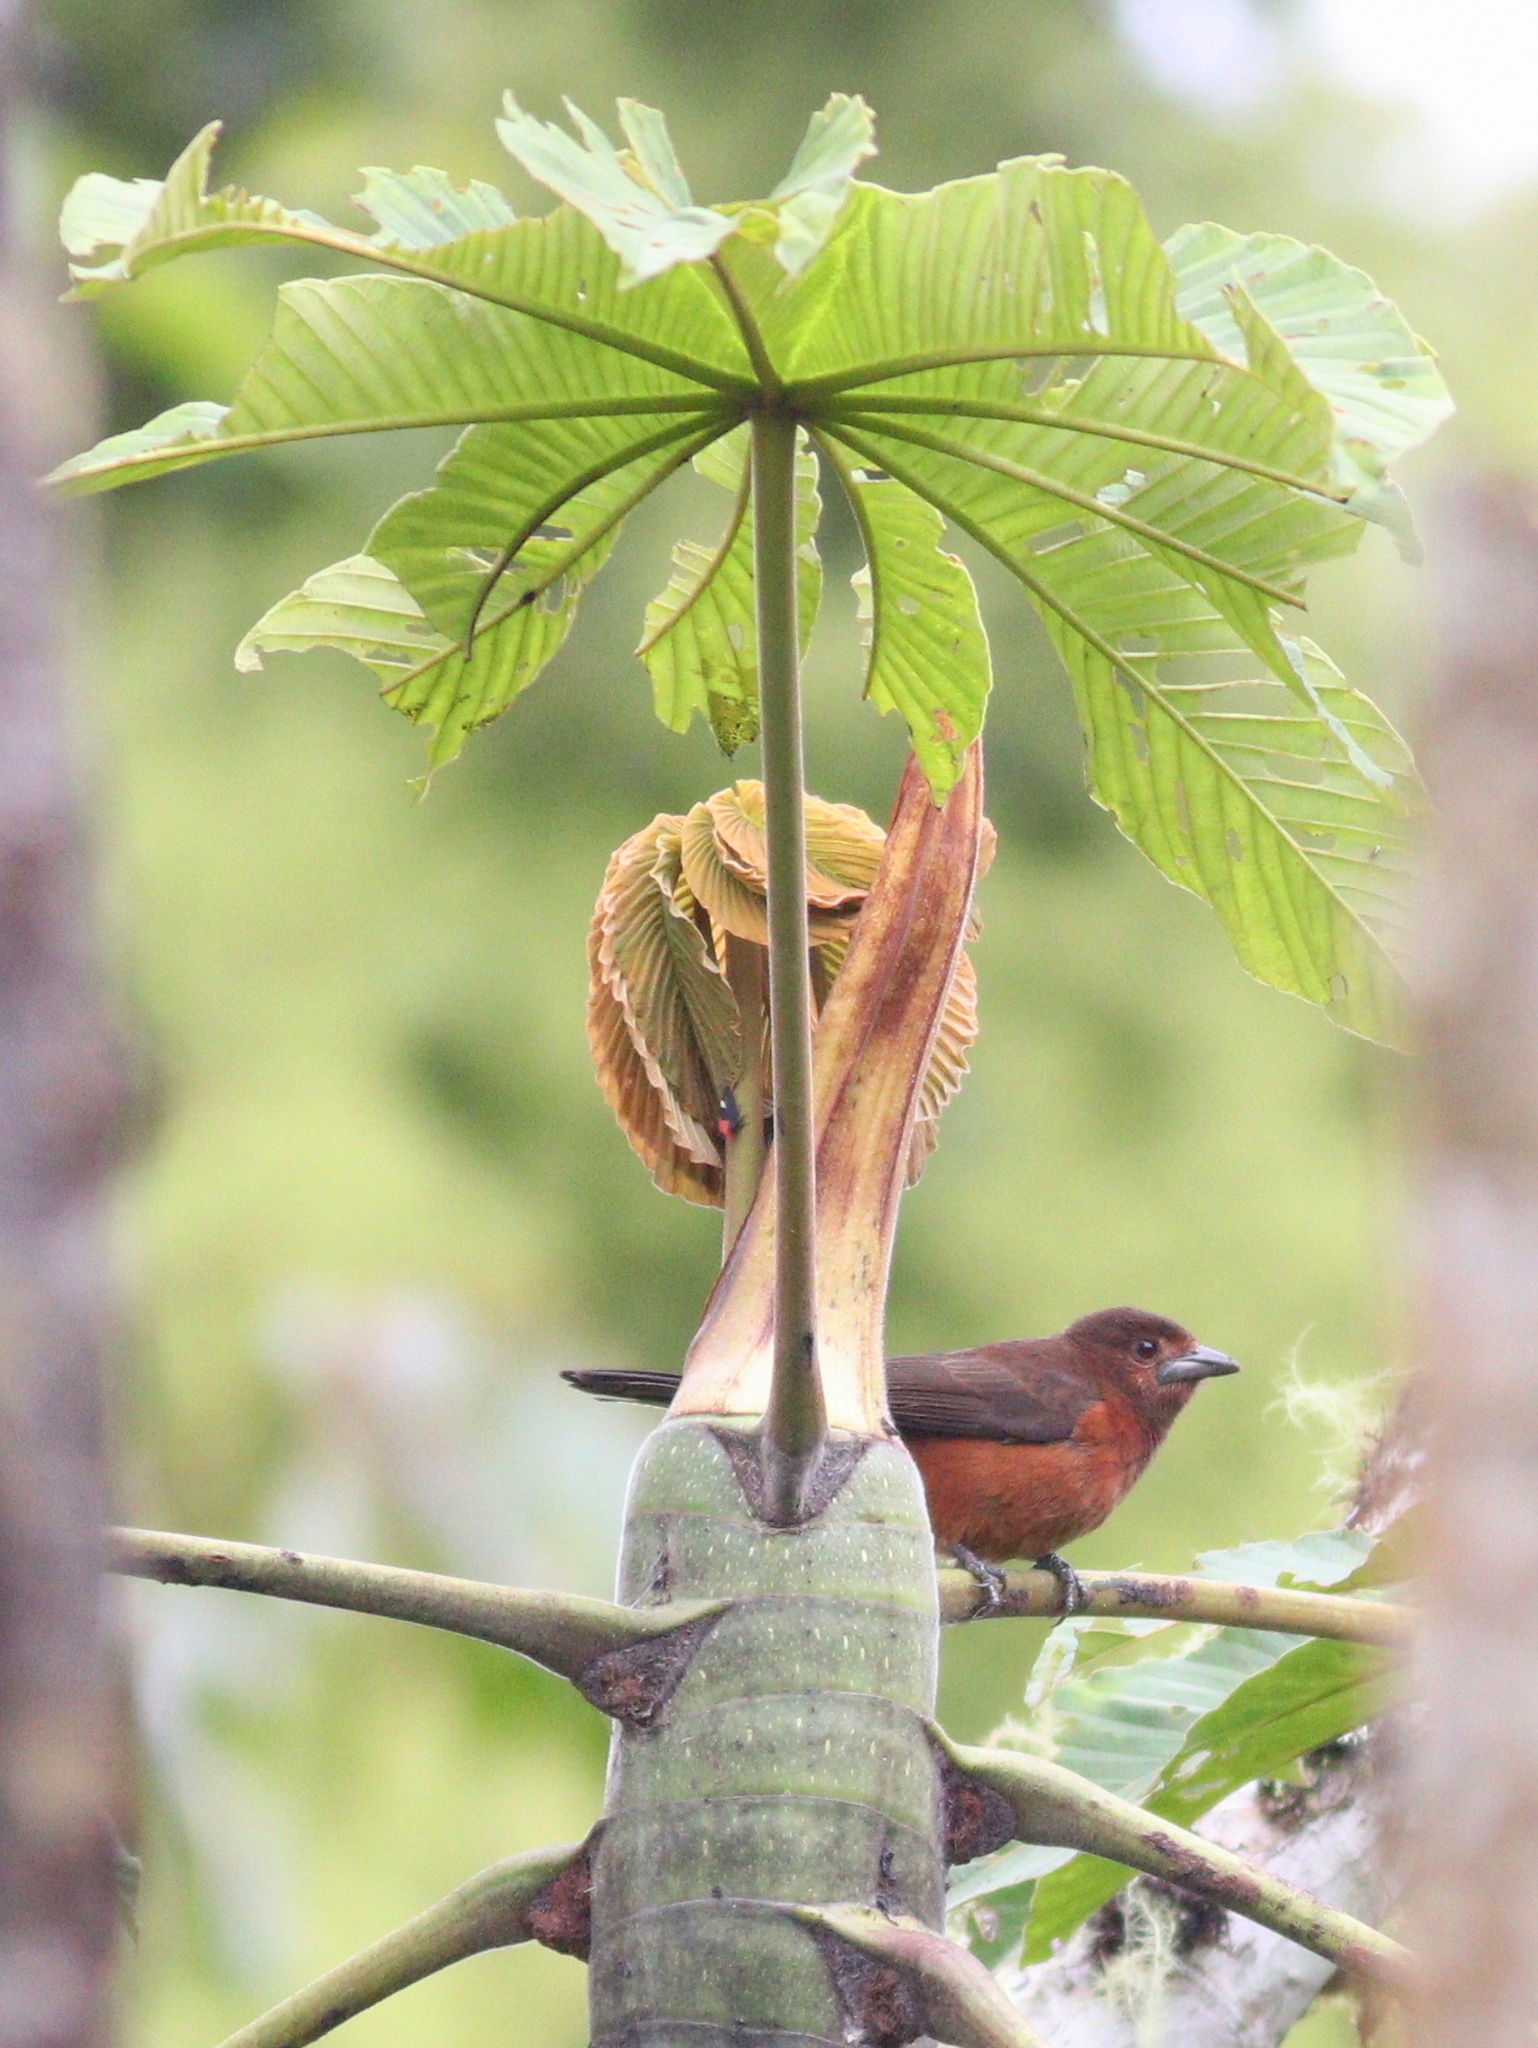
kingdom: Animalia
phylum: Chordata
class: Aves
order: Passeriformes
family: Thraupidae
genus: Ramphocelus
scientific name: Ramphocelus carbo
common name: Silver-beaked tanager
